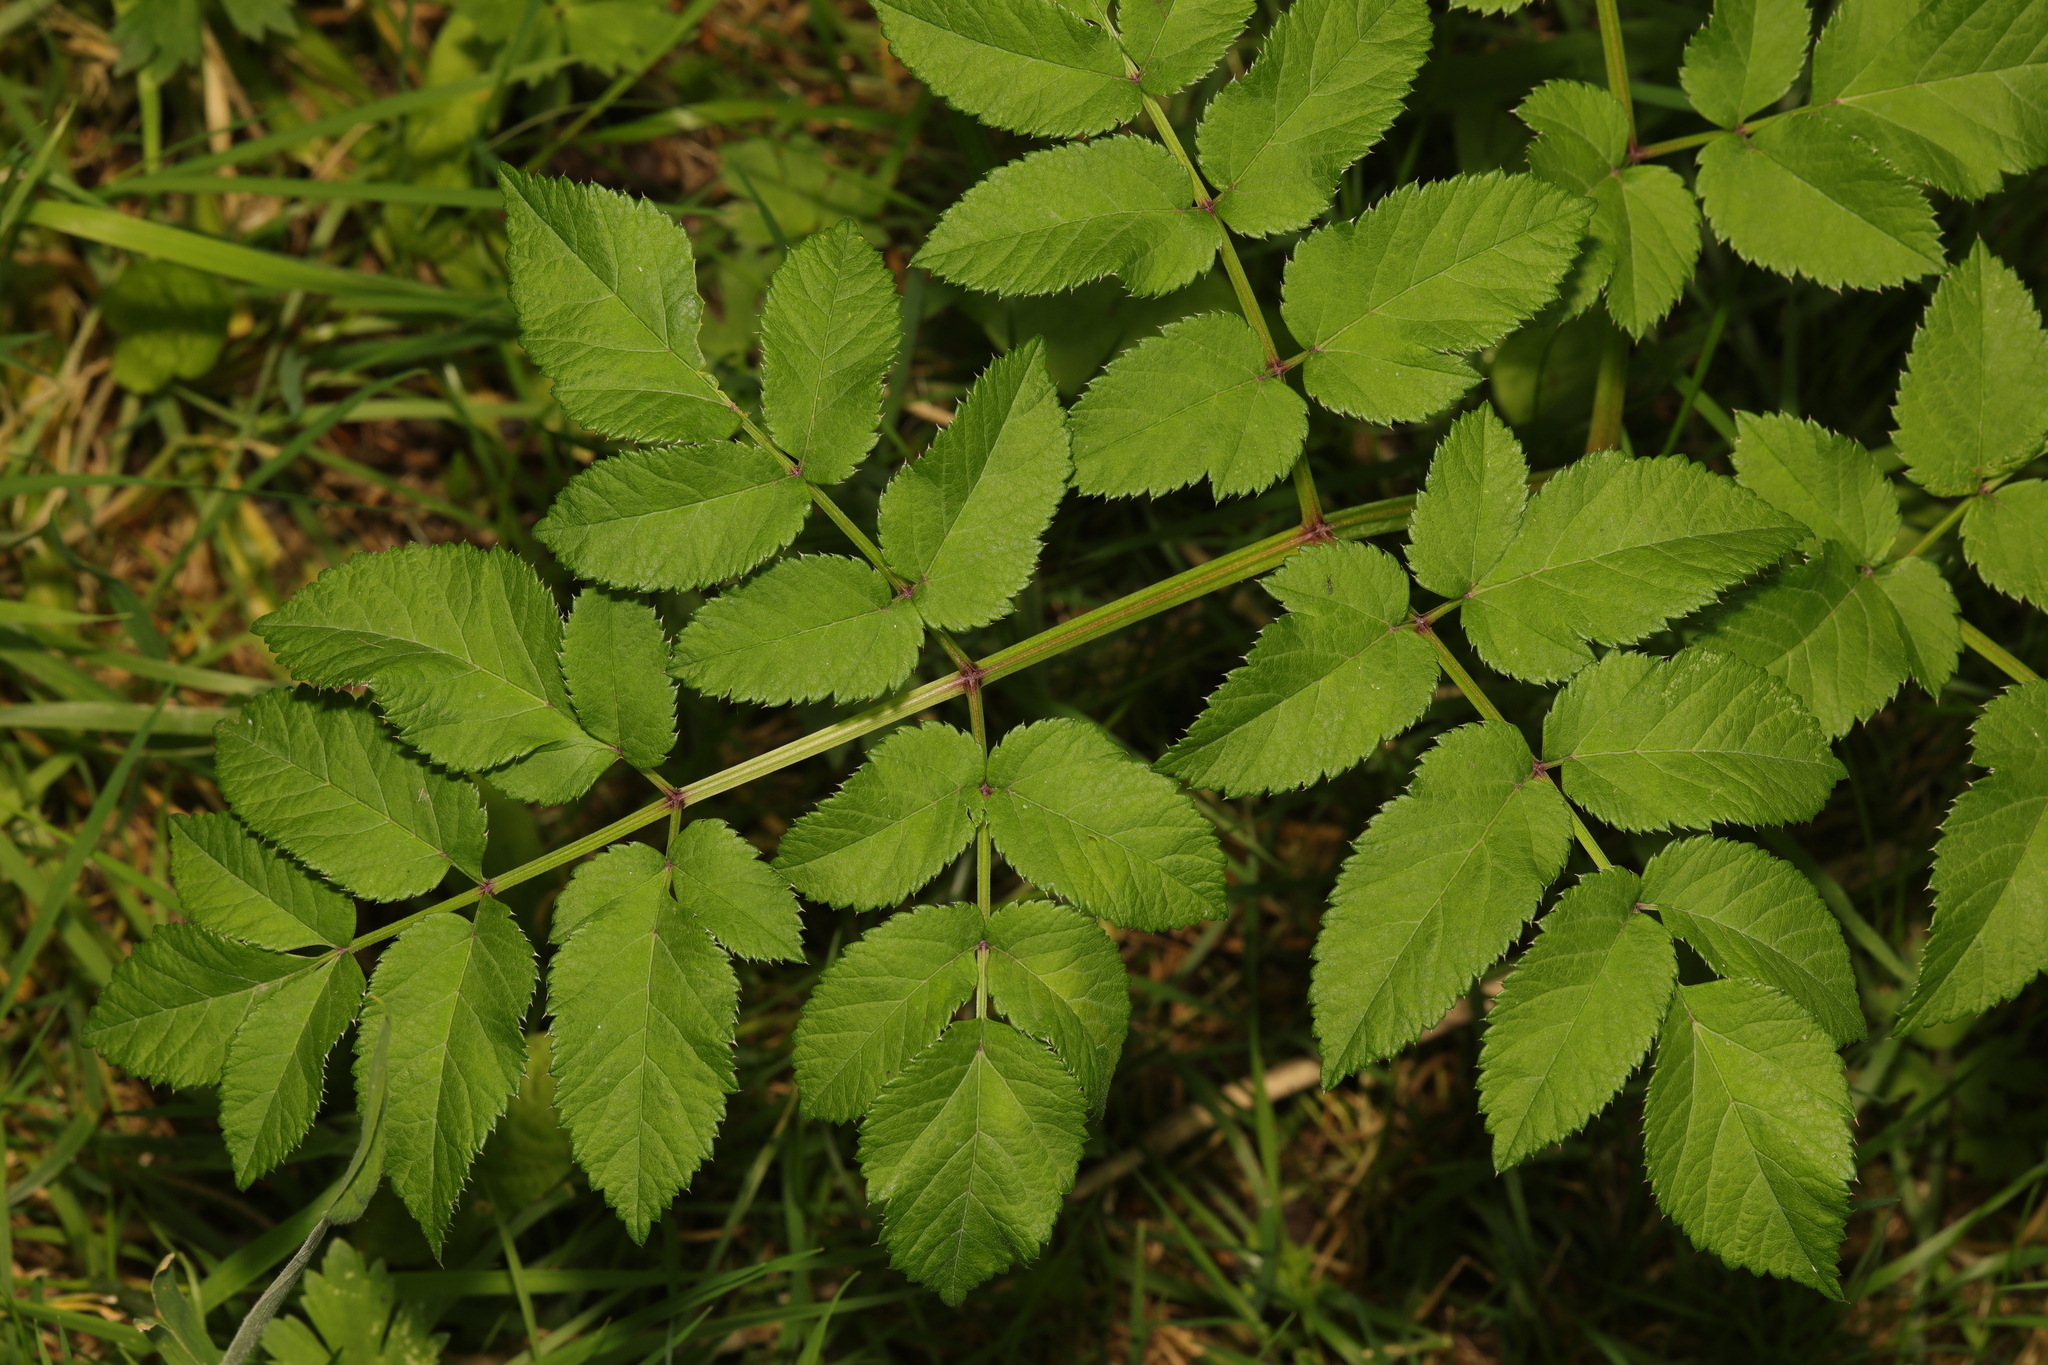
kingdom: Plantae
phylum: Tracheophyta
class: Magnoliopsida
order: Apiales
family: Apiaceae
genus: Angelica
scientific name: Angelica sylvestris
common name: Wild angelica
